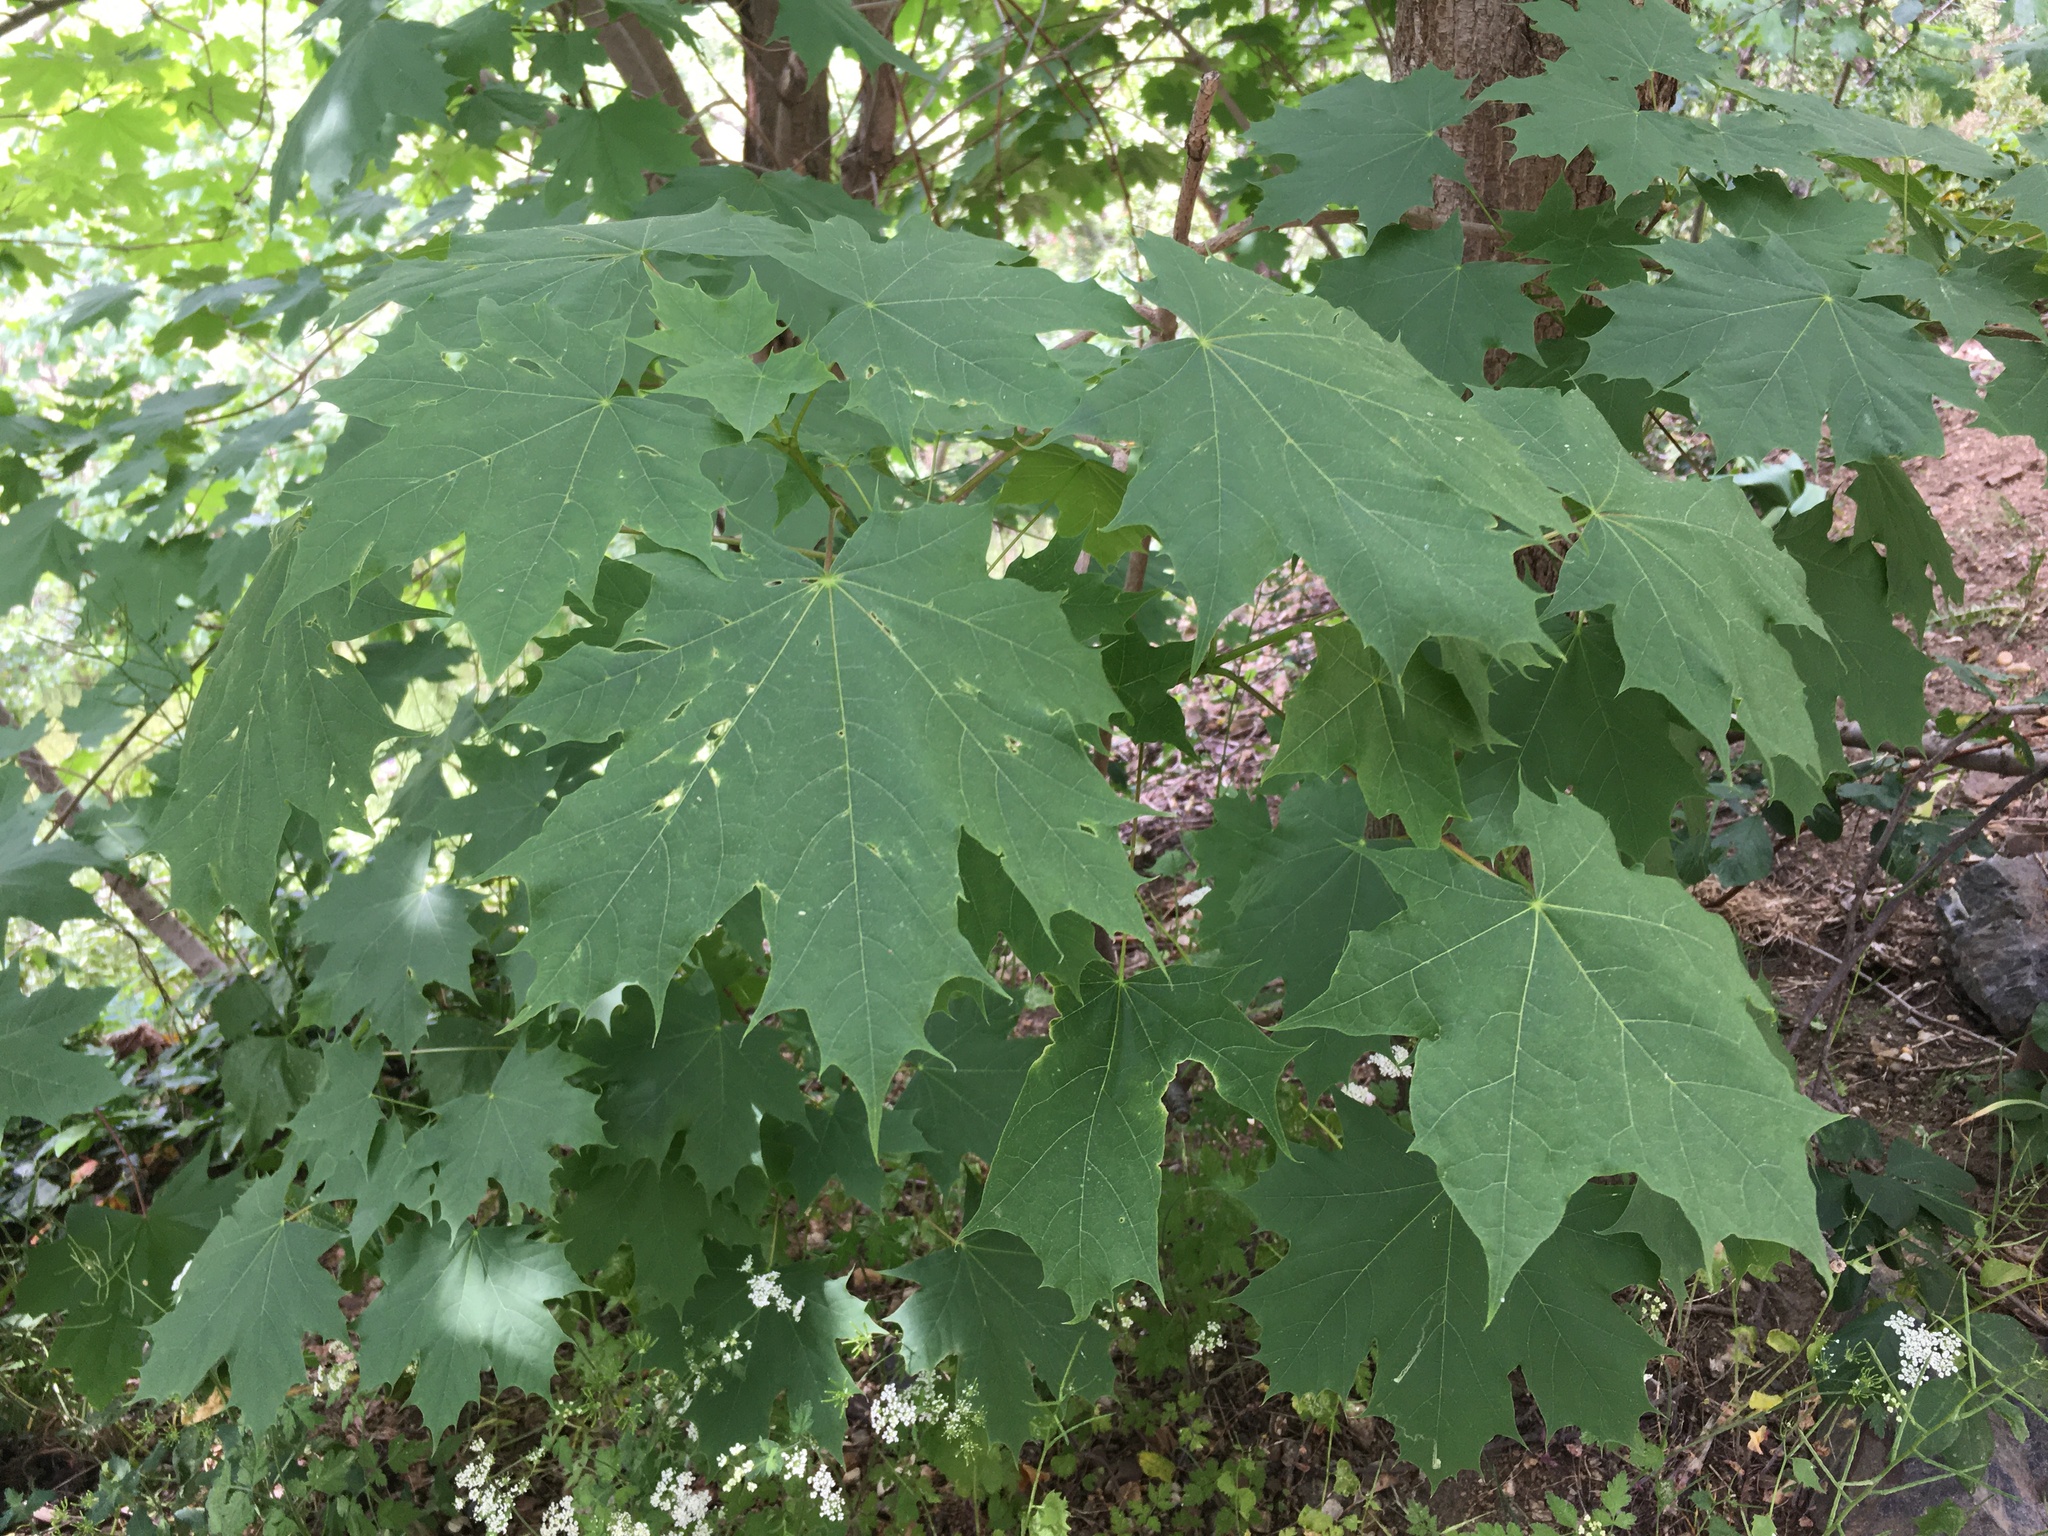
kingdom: Plantae
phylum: Tracheophyta
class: Magnoliopsida
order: Sapindales
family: Sapindaceae
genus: Acer
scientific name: Acer platanoides
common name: Norway maple
